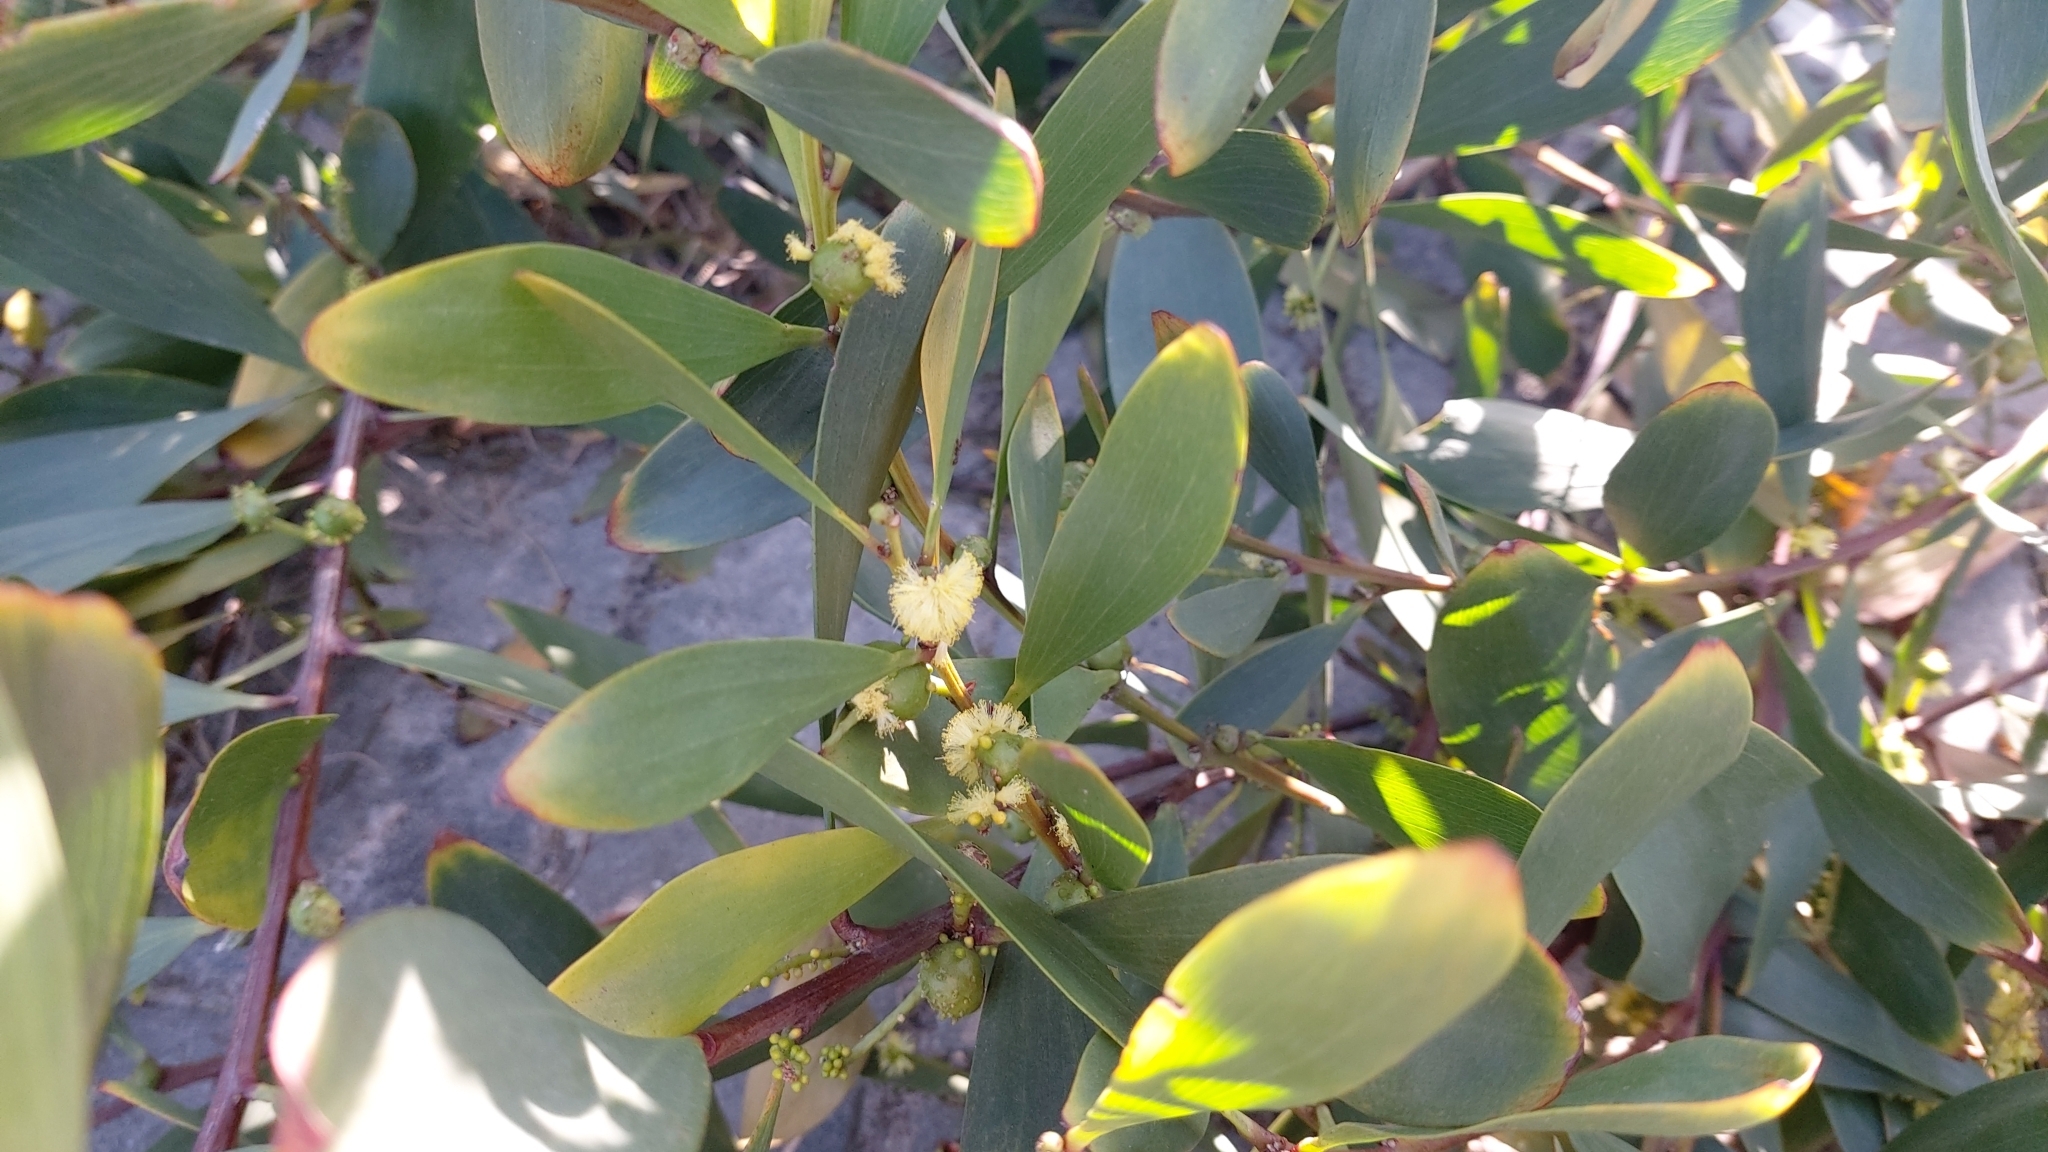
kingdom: Animalia
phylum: Arthropoda
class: Insecta
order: Hymenoptera
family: Pteromalidae
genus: Trichilogaster
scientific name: Trichilogaster acaciaelongifoliae
